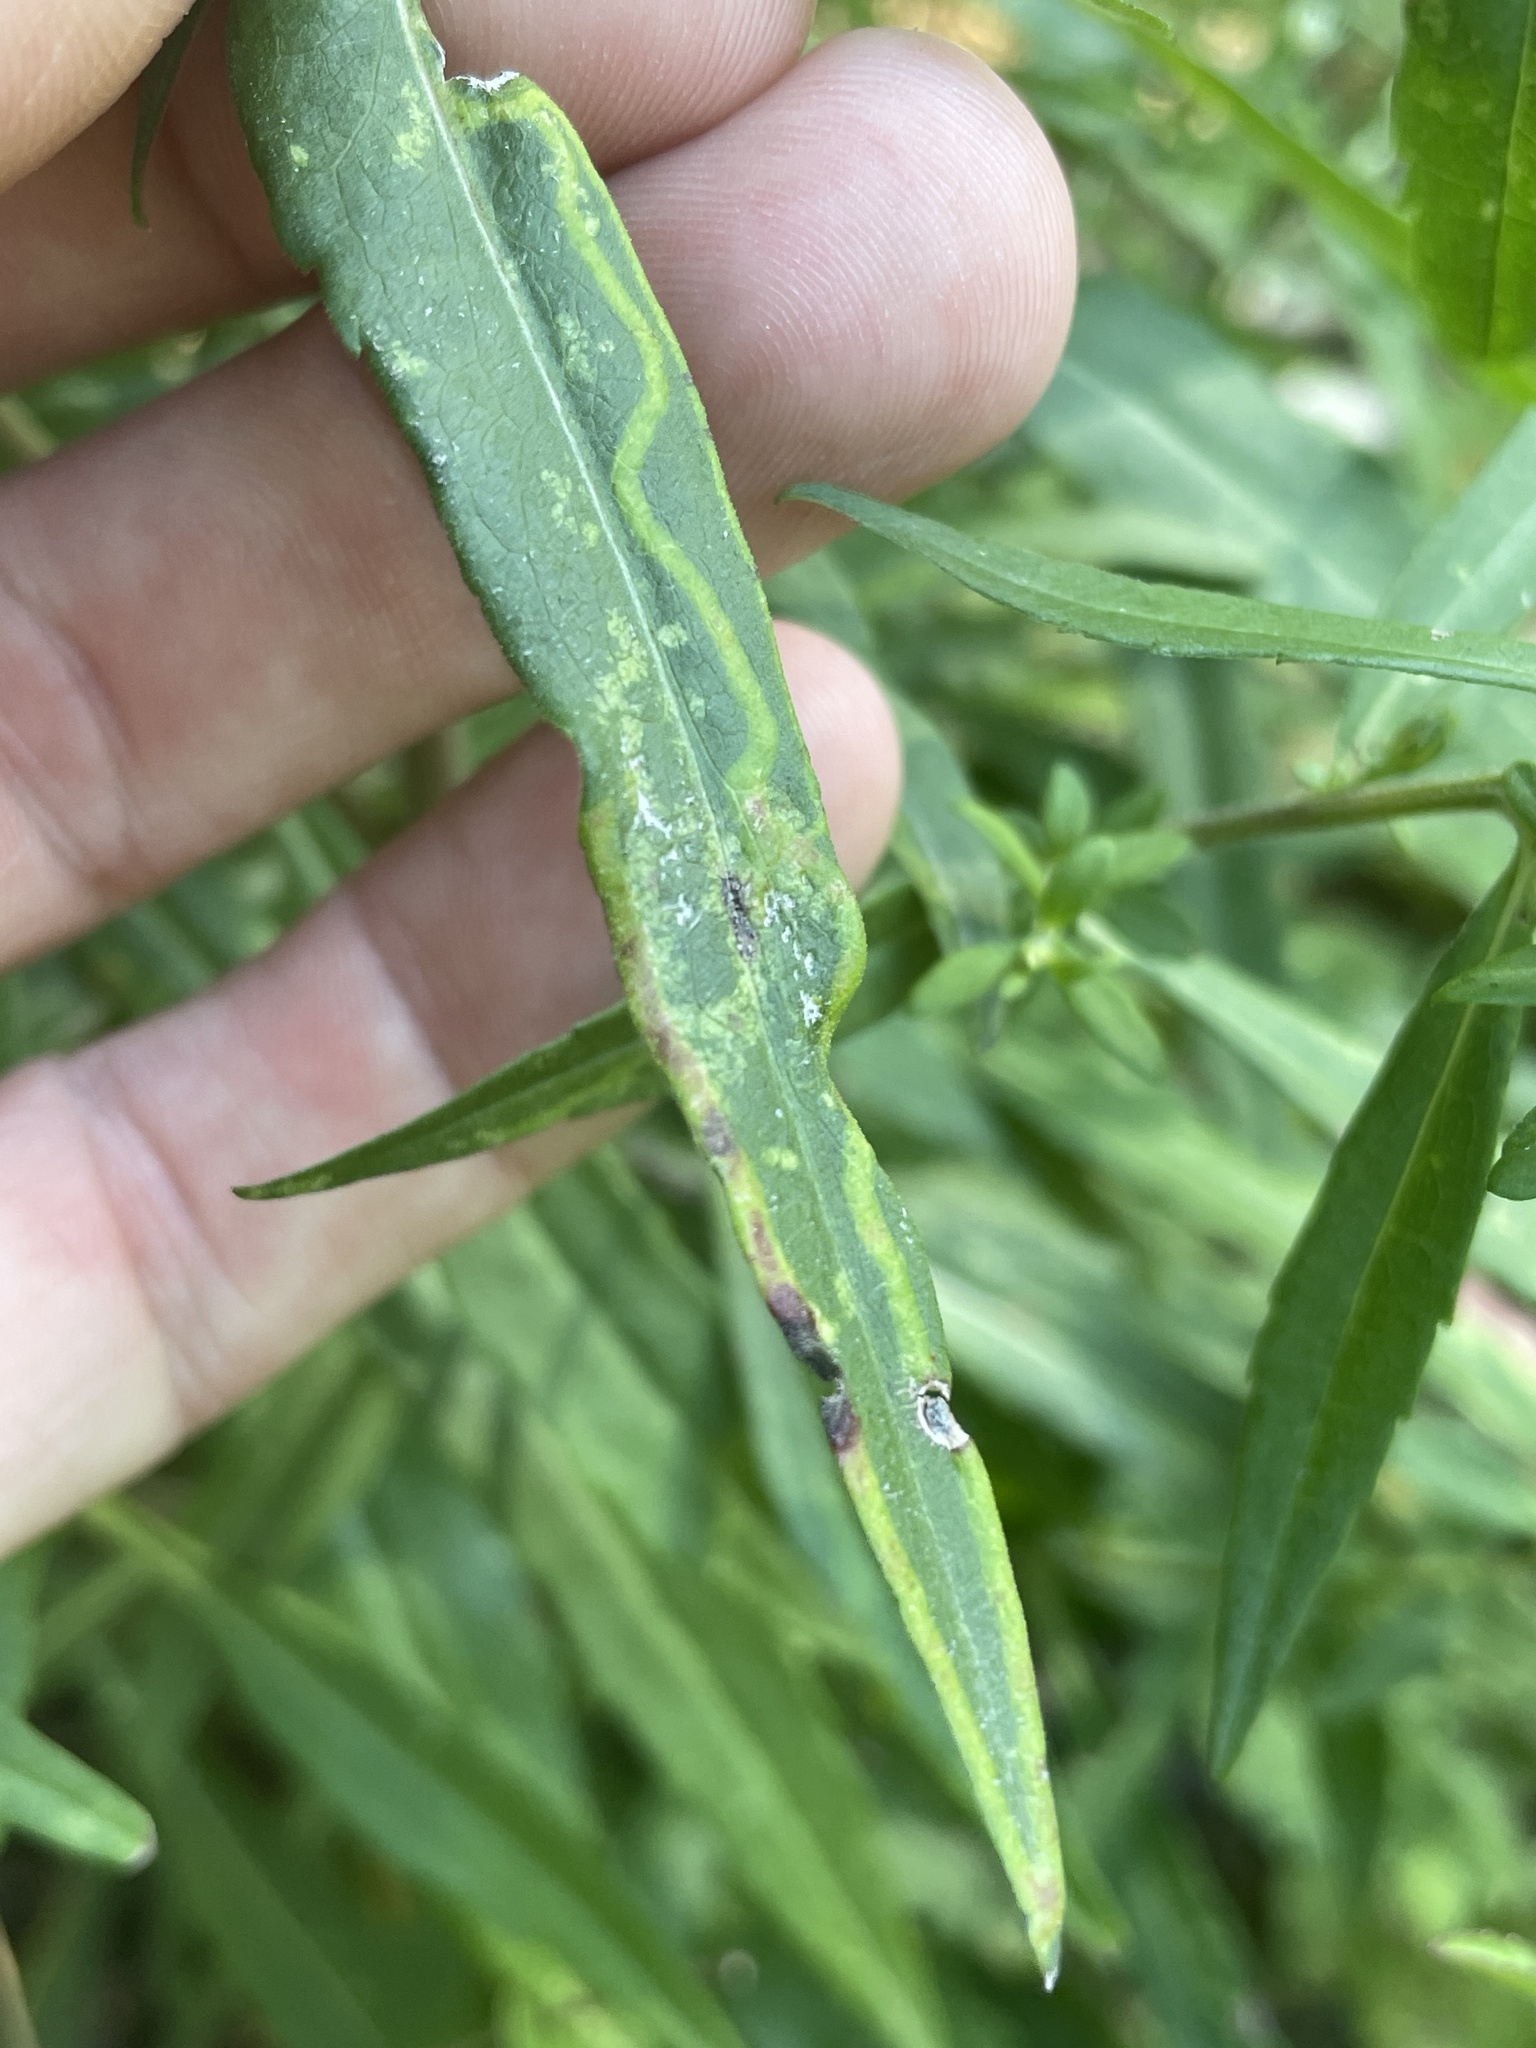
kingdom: Animalia
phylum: Arthropoda
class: Insecta
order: Diptera
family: Agromyzidae
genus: Ophiomyia
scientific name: Ophiomyia parda
